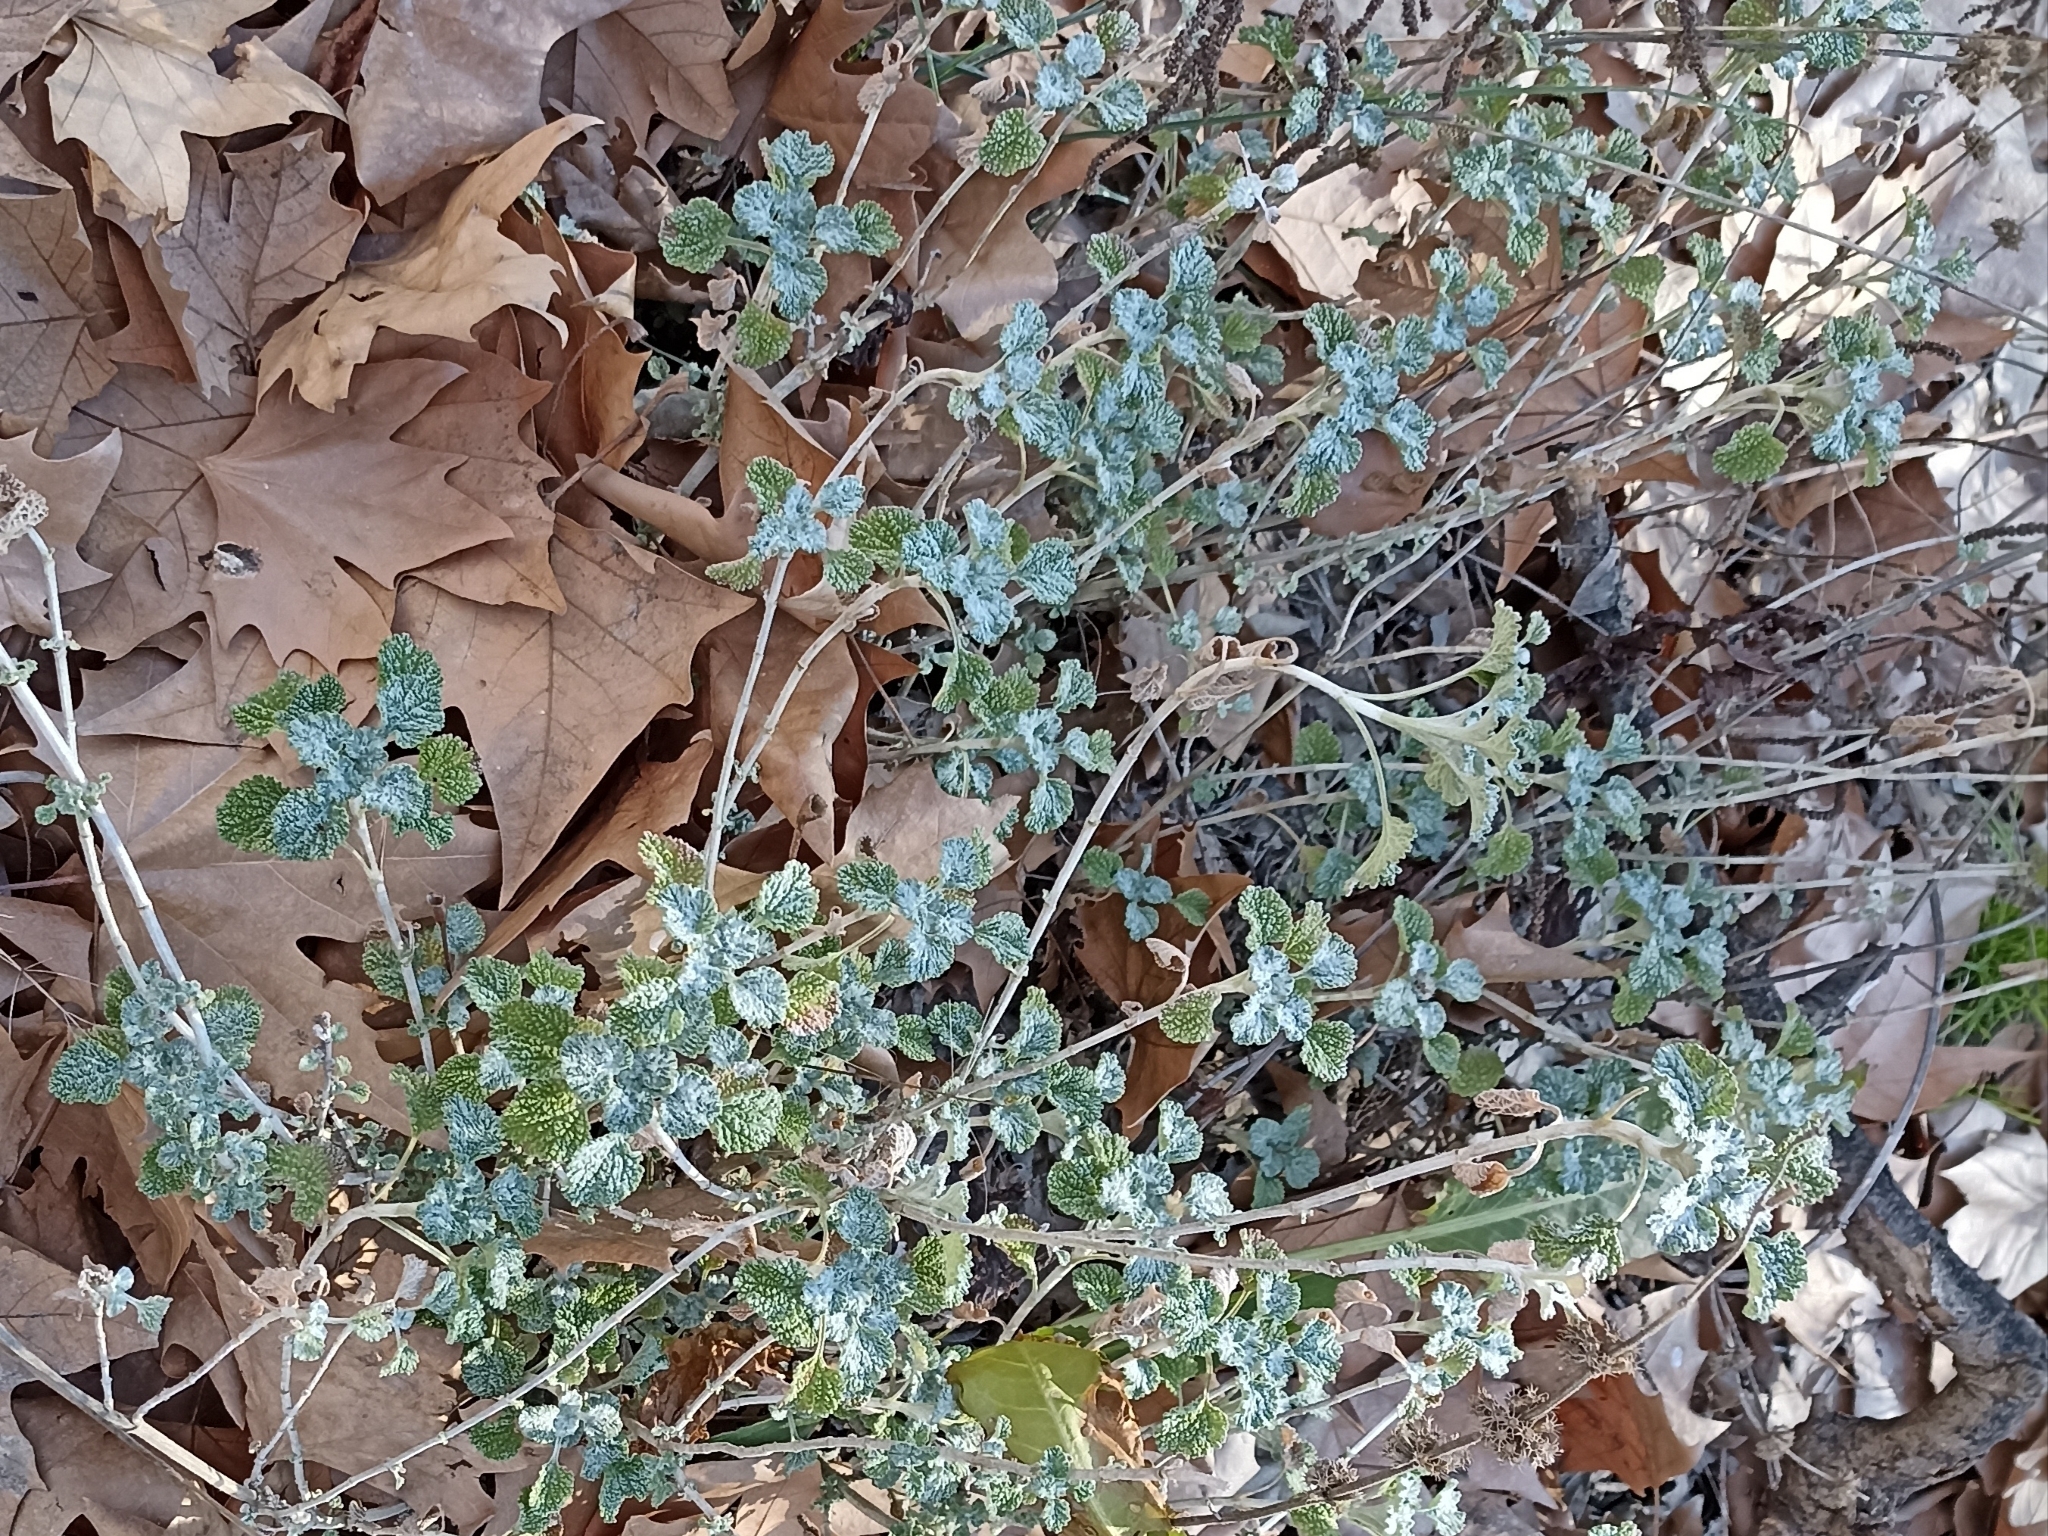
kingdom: Plantae
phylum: Tracheophyta
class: Magnoliopsida
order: Lamiales
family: Lamiaceae
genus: Marrubium
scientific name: Marrubium vulgare
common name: Horehound
